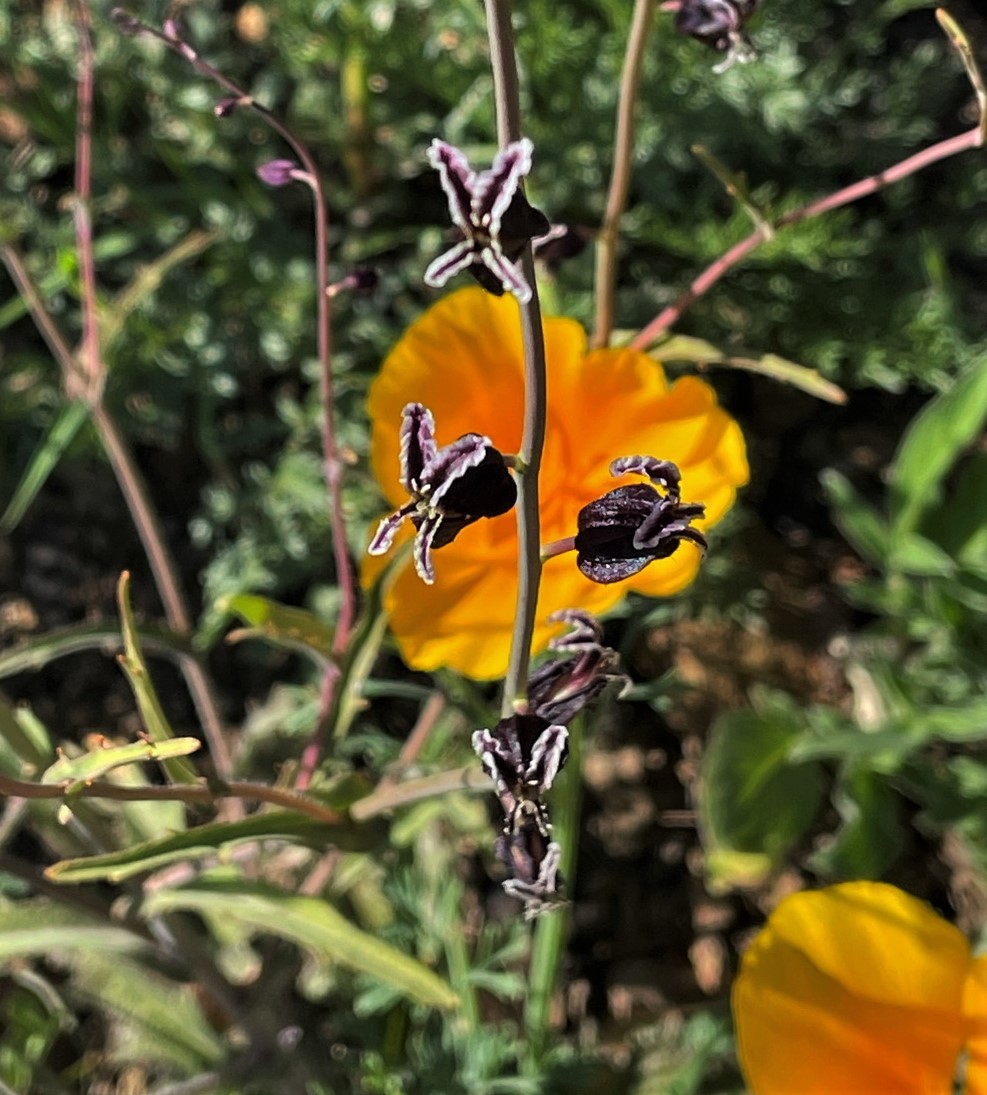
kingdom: Plantae
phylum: Tracheophyta
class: Magnoliopsida
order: Brassicales
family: Brassicaceae
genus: Streptanthus
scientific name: Streptanthus glandulosus
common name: Jewel-flower
